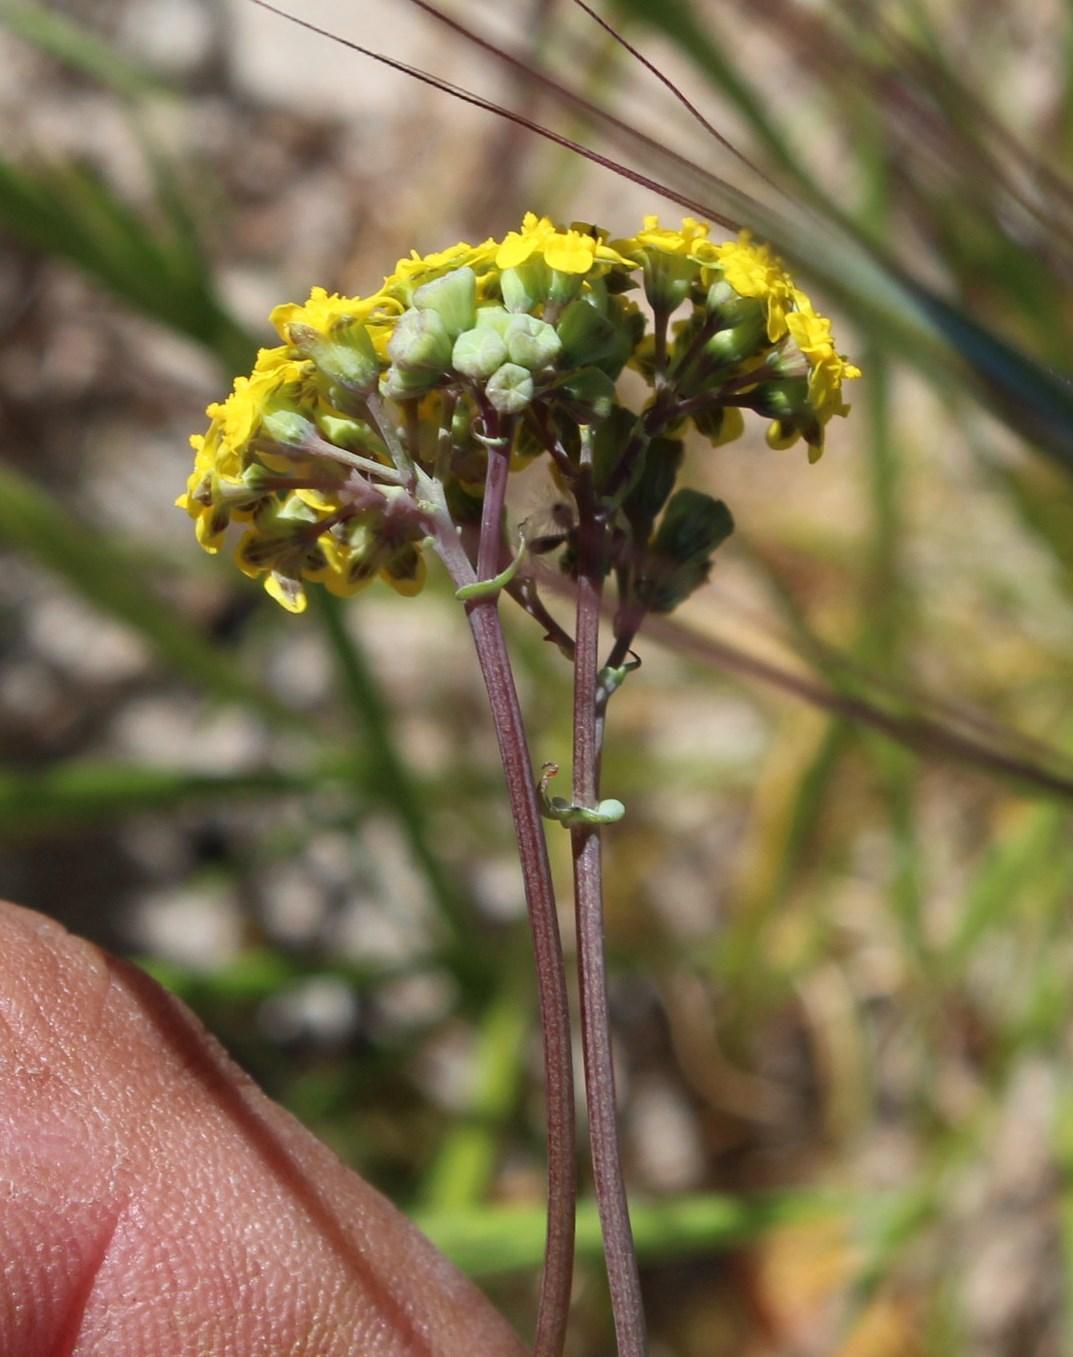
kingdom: Plantae
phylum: Tracheophyta
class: Magnoliopsida
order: Asterales
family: Asteraceae
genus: Gymnodiscus
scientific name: Gymnodiscus capillaris
